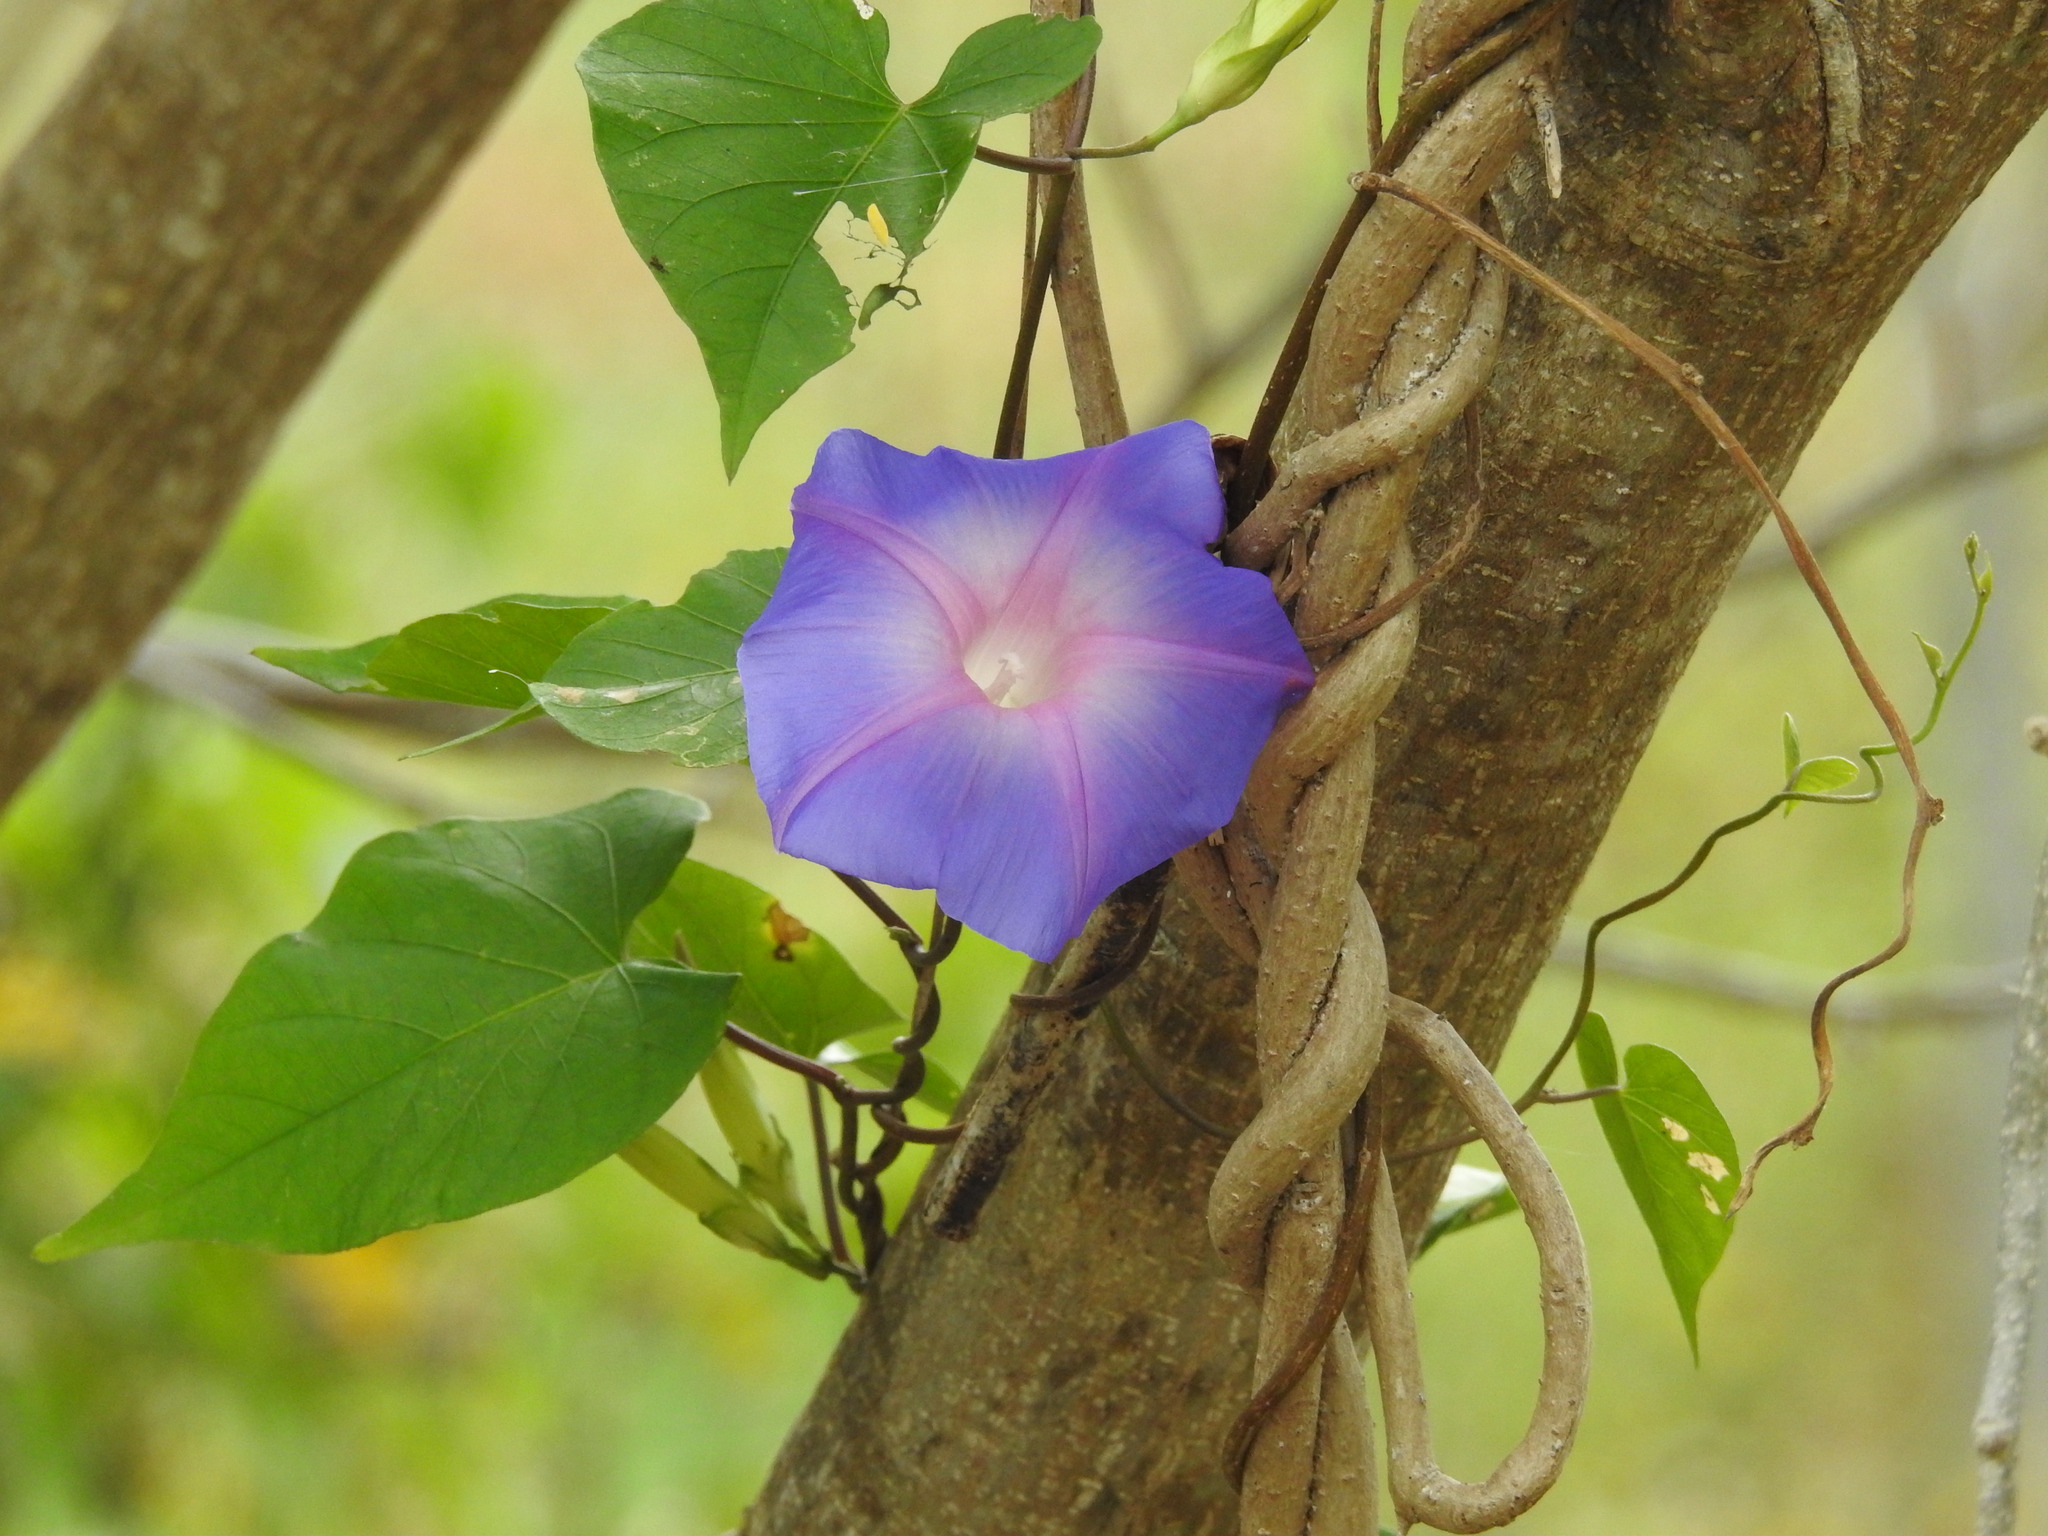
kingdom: Plantae
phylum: Tracheophyta
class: Magnoliopsida
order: Solanales
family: Convolvulaceae
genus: Ipomoea
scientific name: Ipomoea indica
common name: Blue dawnflower
